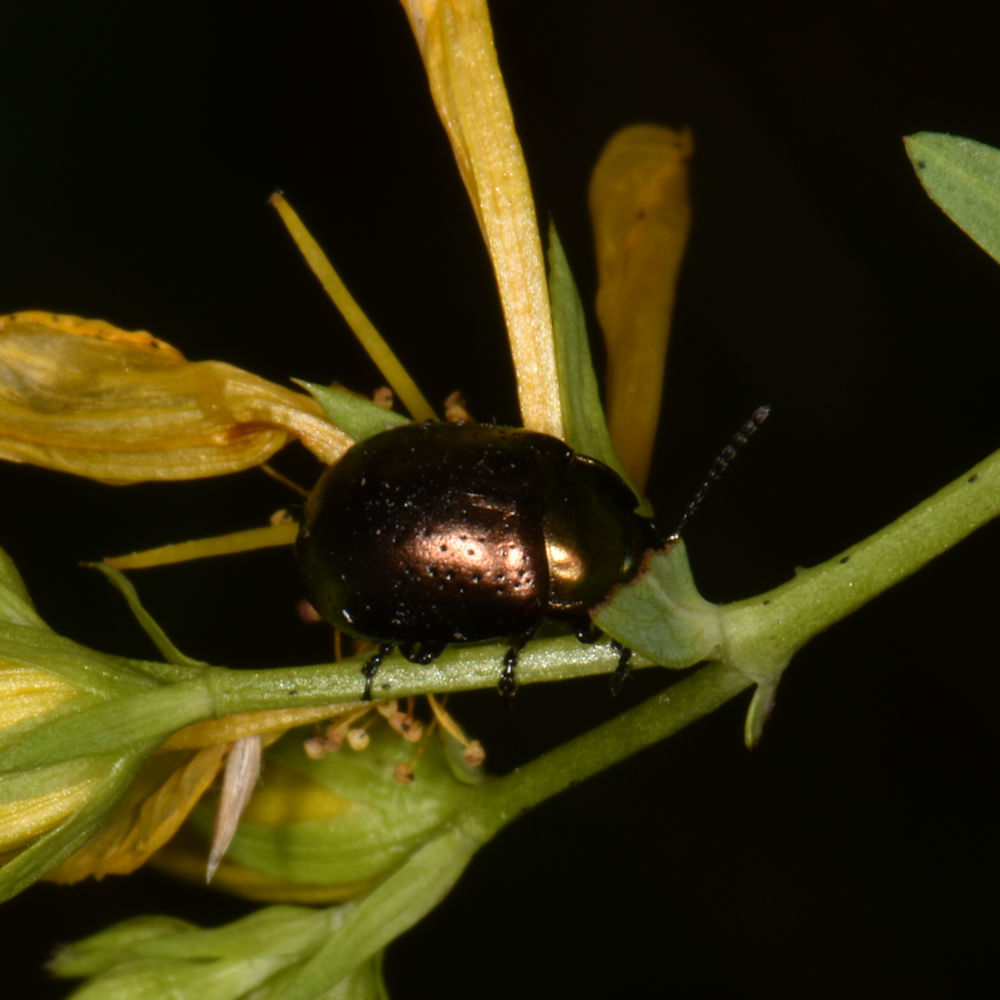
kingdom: Animalia
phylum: Arthropoda
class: Insecta
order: Coleoptera
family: Chrysomelidae
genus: Chrysolina
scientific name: Chrysolina hyperici
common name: St. johnswort beetle
